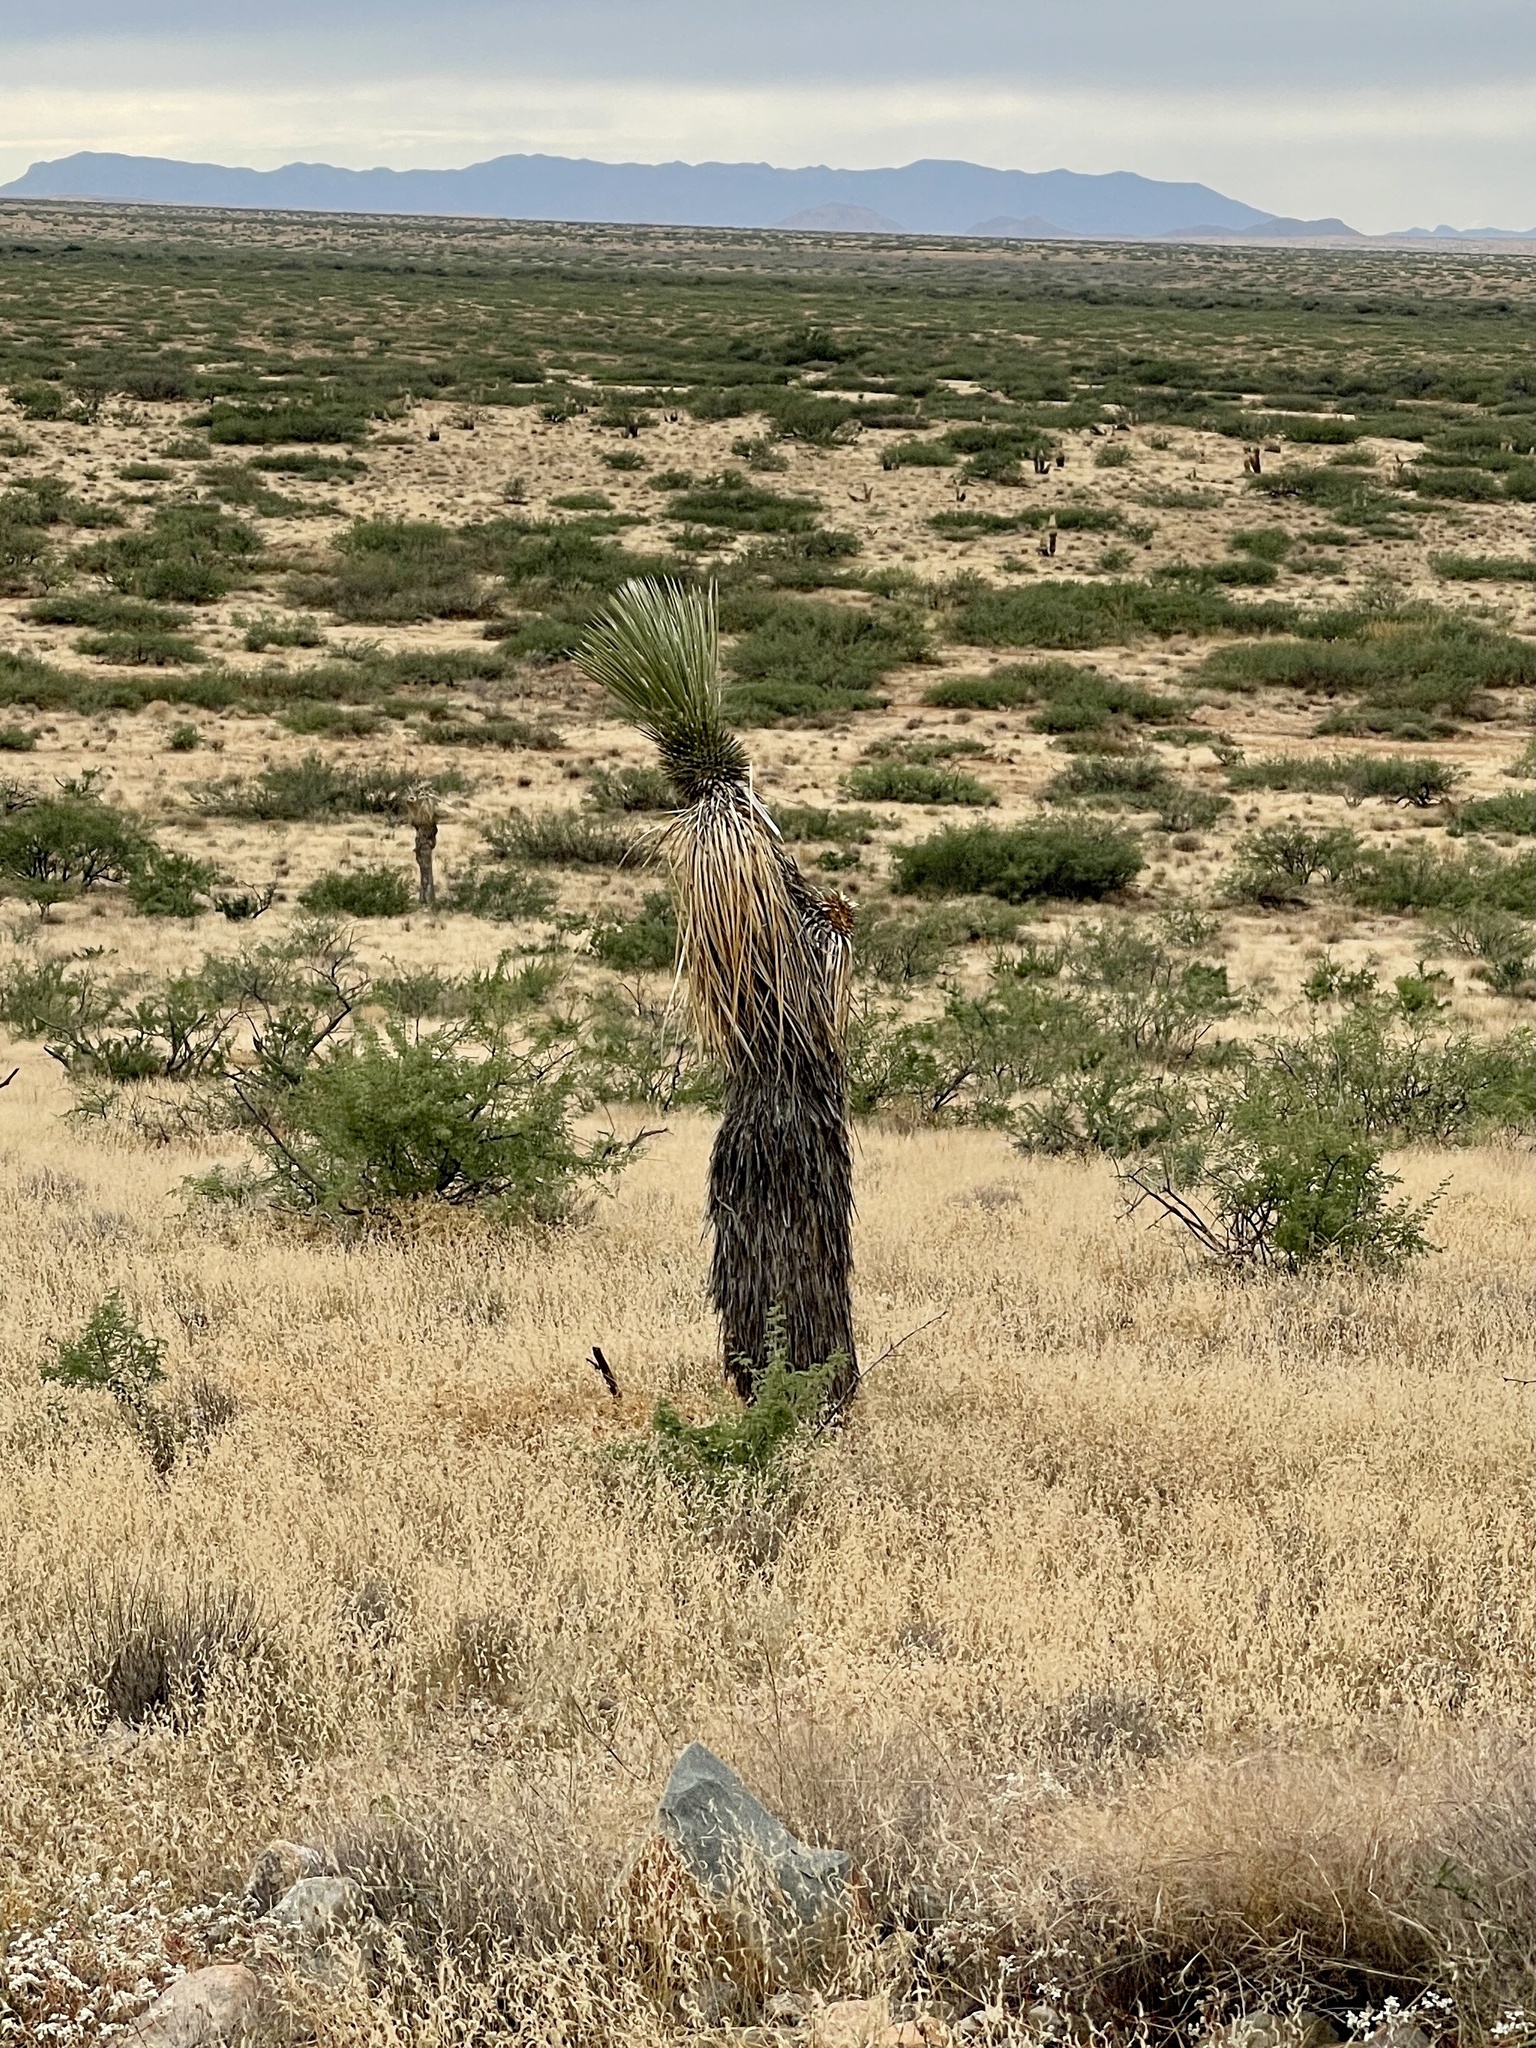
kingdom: Plantae
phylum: Tracheophyta
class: Liliopsida
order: Asparagales
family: Asparagaceae
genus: Yucca
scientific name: Yucca elata
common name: Palmella
